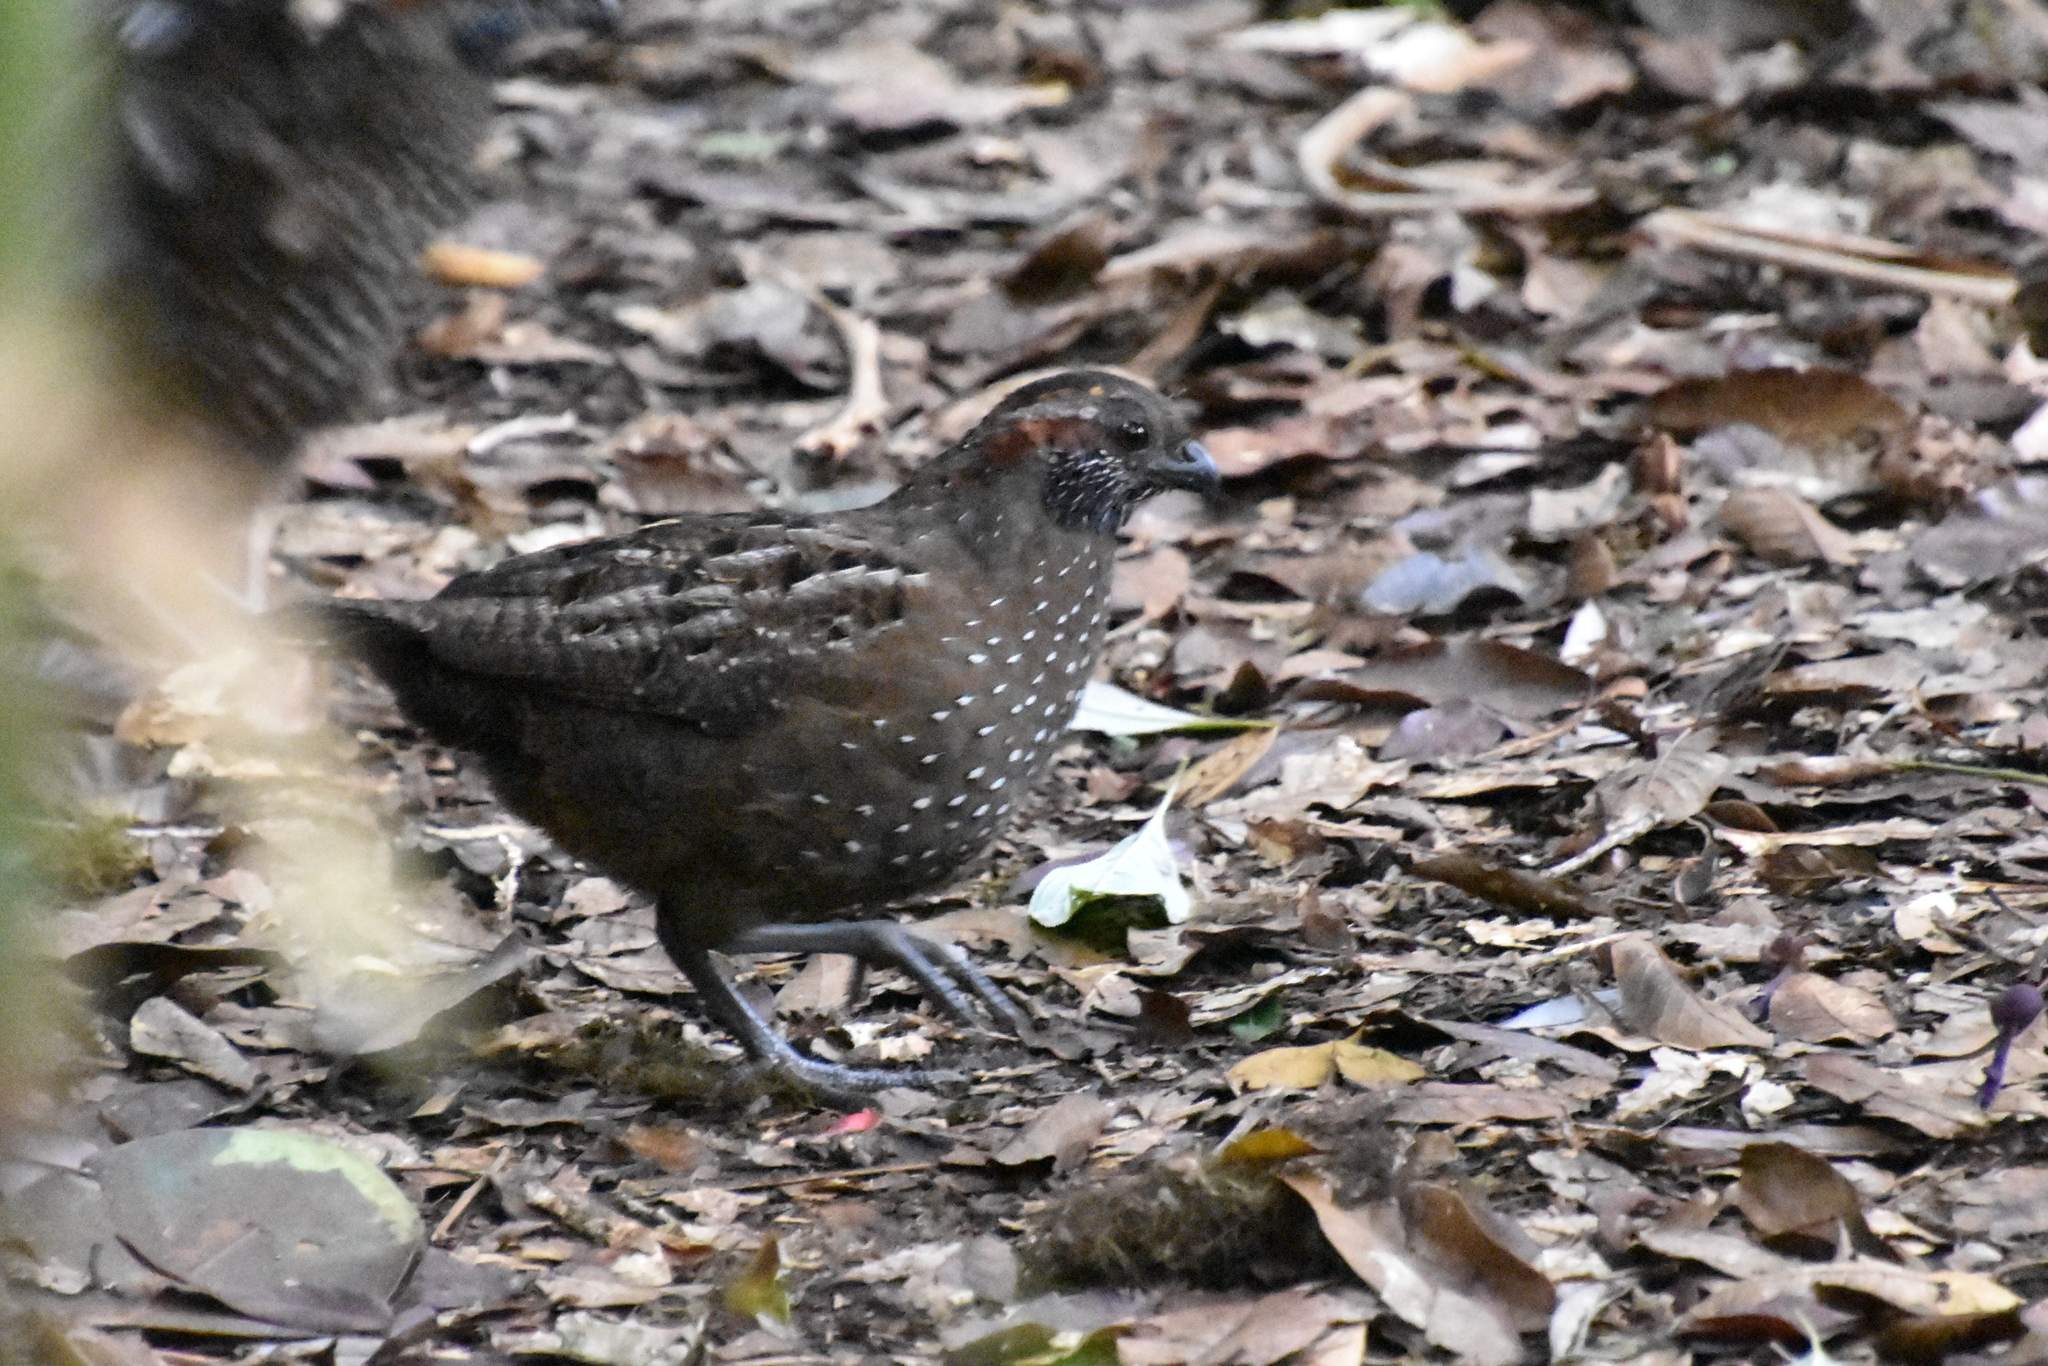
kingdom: Animalia
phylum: Chordata
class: Aves
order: Galliformes
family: Odontophoridae
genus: Odontophorus
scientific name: Odontophorus guttatus
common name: Spotted wood-quail
